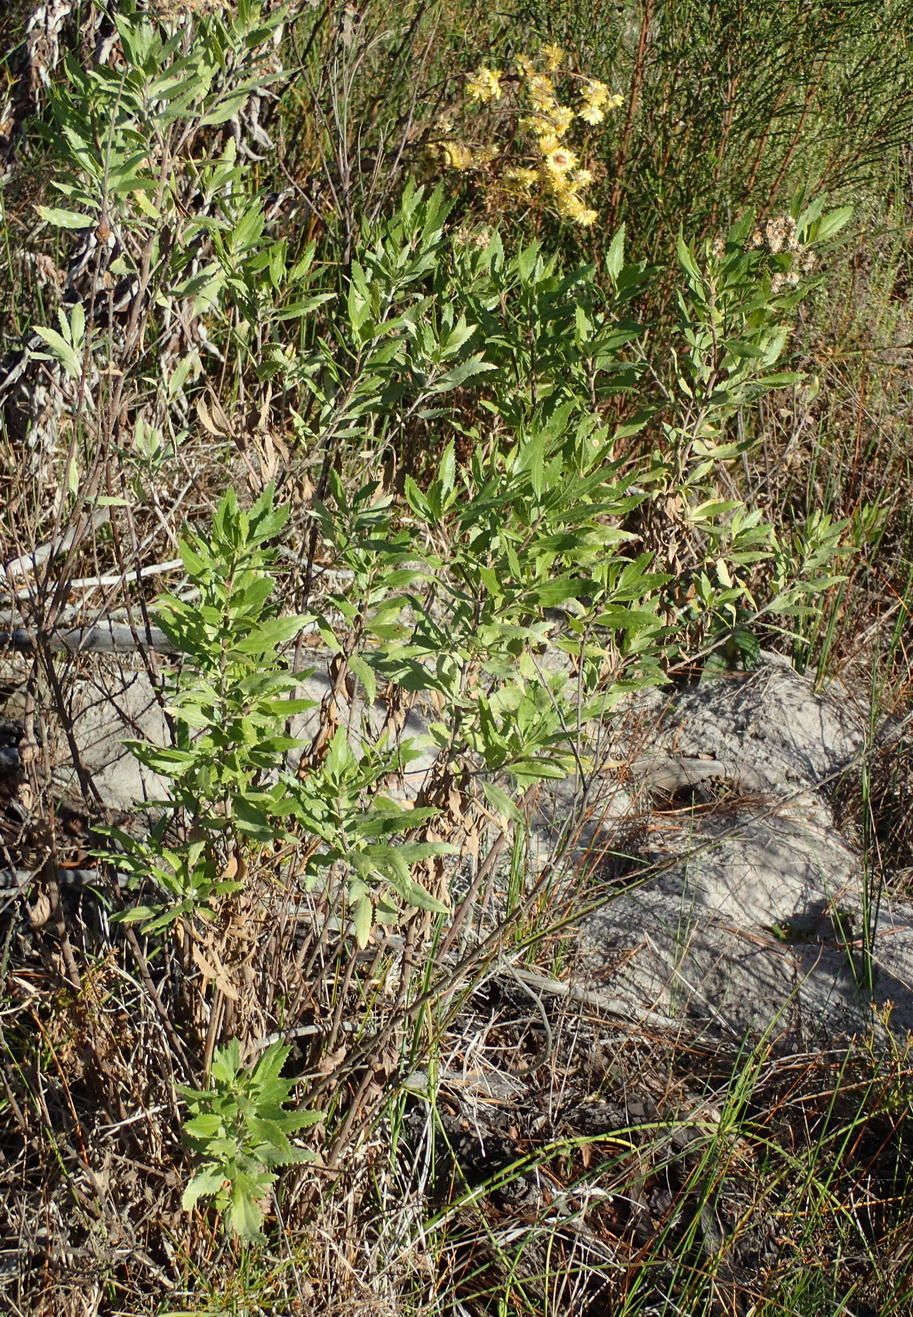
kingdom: Plantae
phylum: Tracheophyta
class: Magnoliopsida
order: Asterales
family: Asteraceae
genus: Nidorella
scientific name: Nidorella ivifolia
